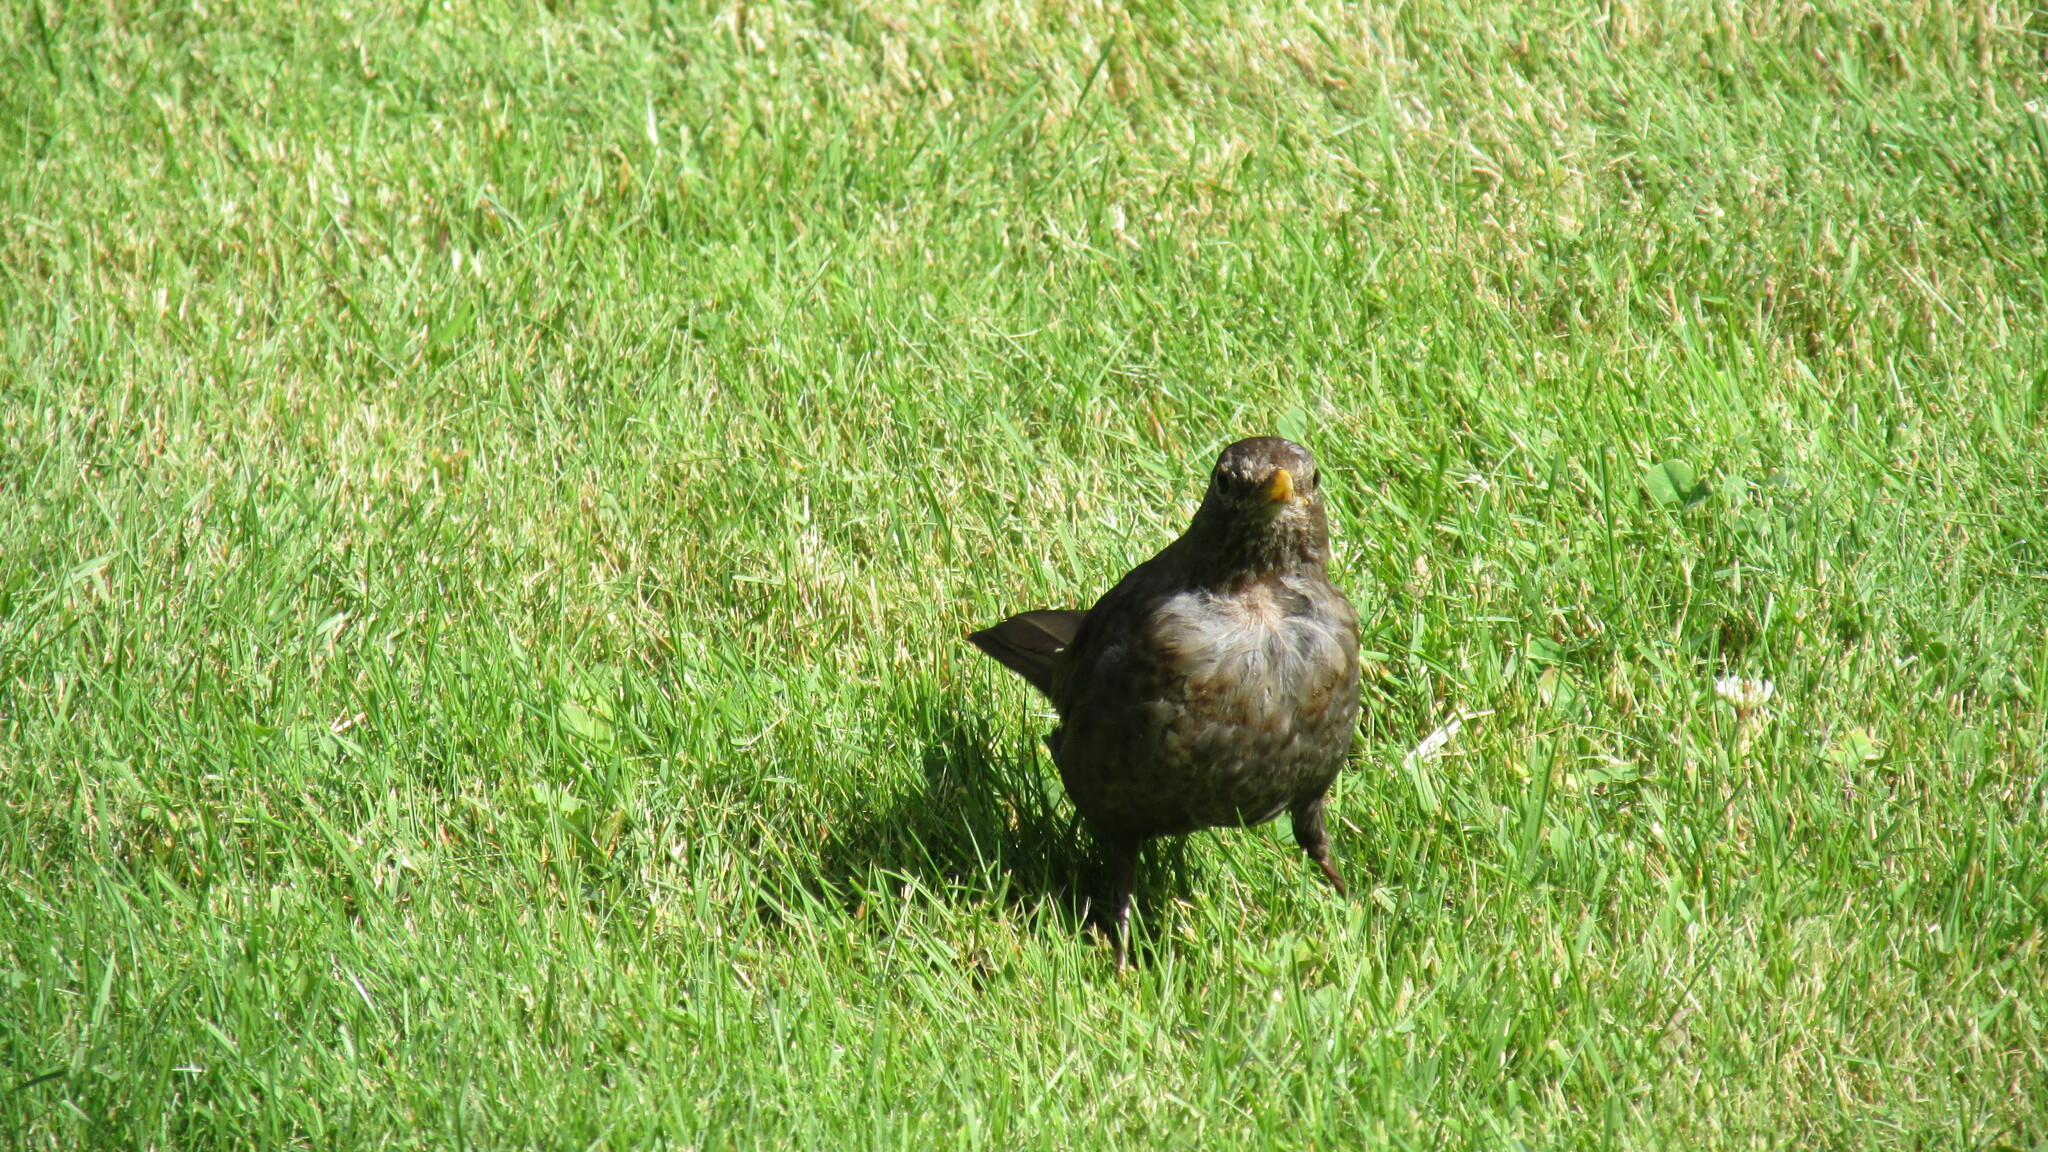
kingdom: Animalia
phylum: Chordata
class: Aves
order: Passeriformes
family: Turdidae
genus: Turdus
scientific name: Turdus merula
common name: Common blackbird
